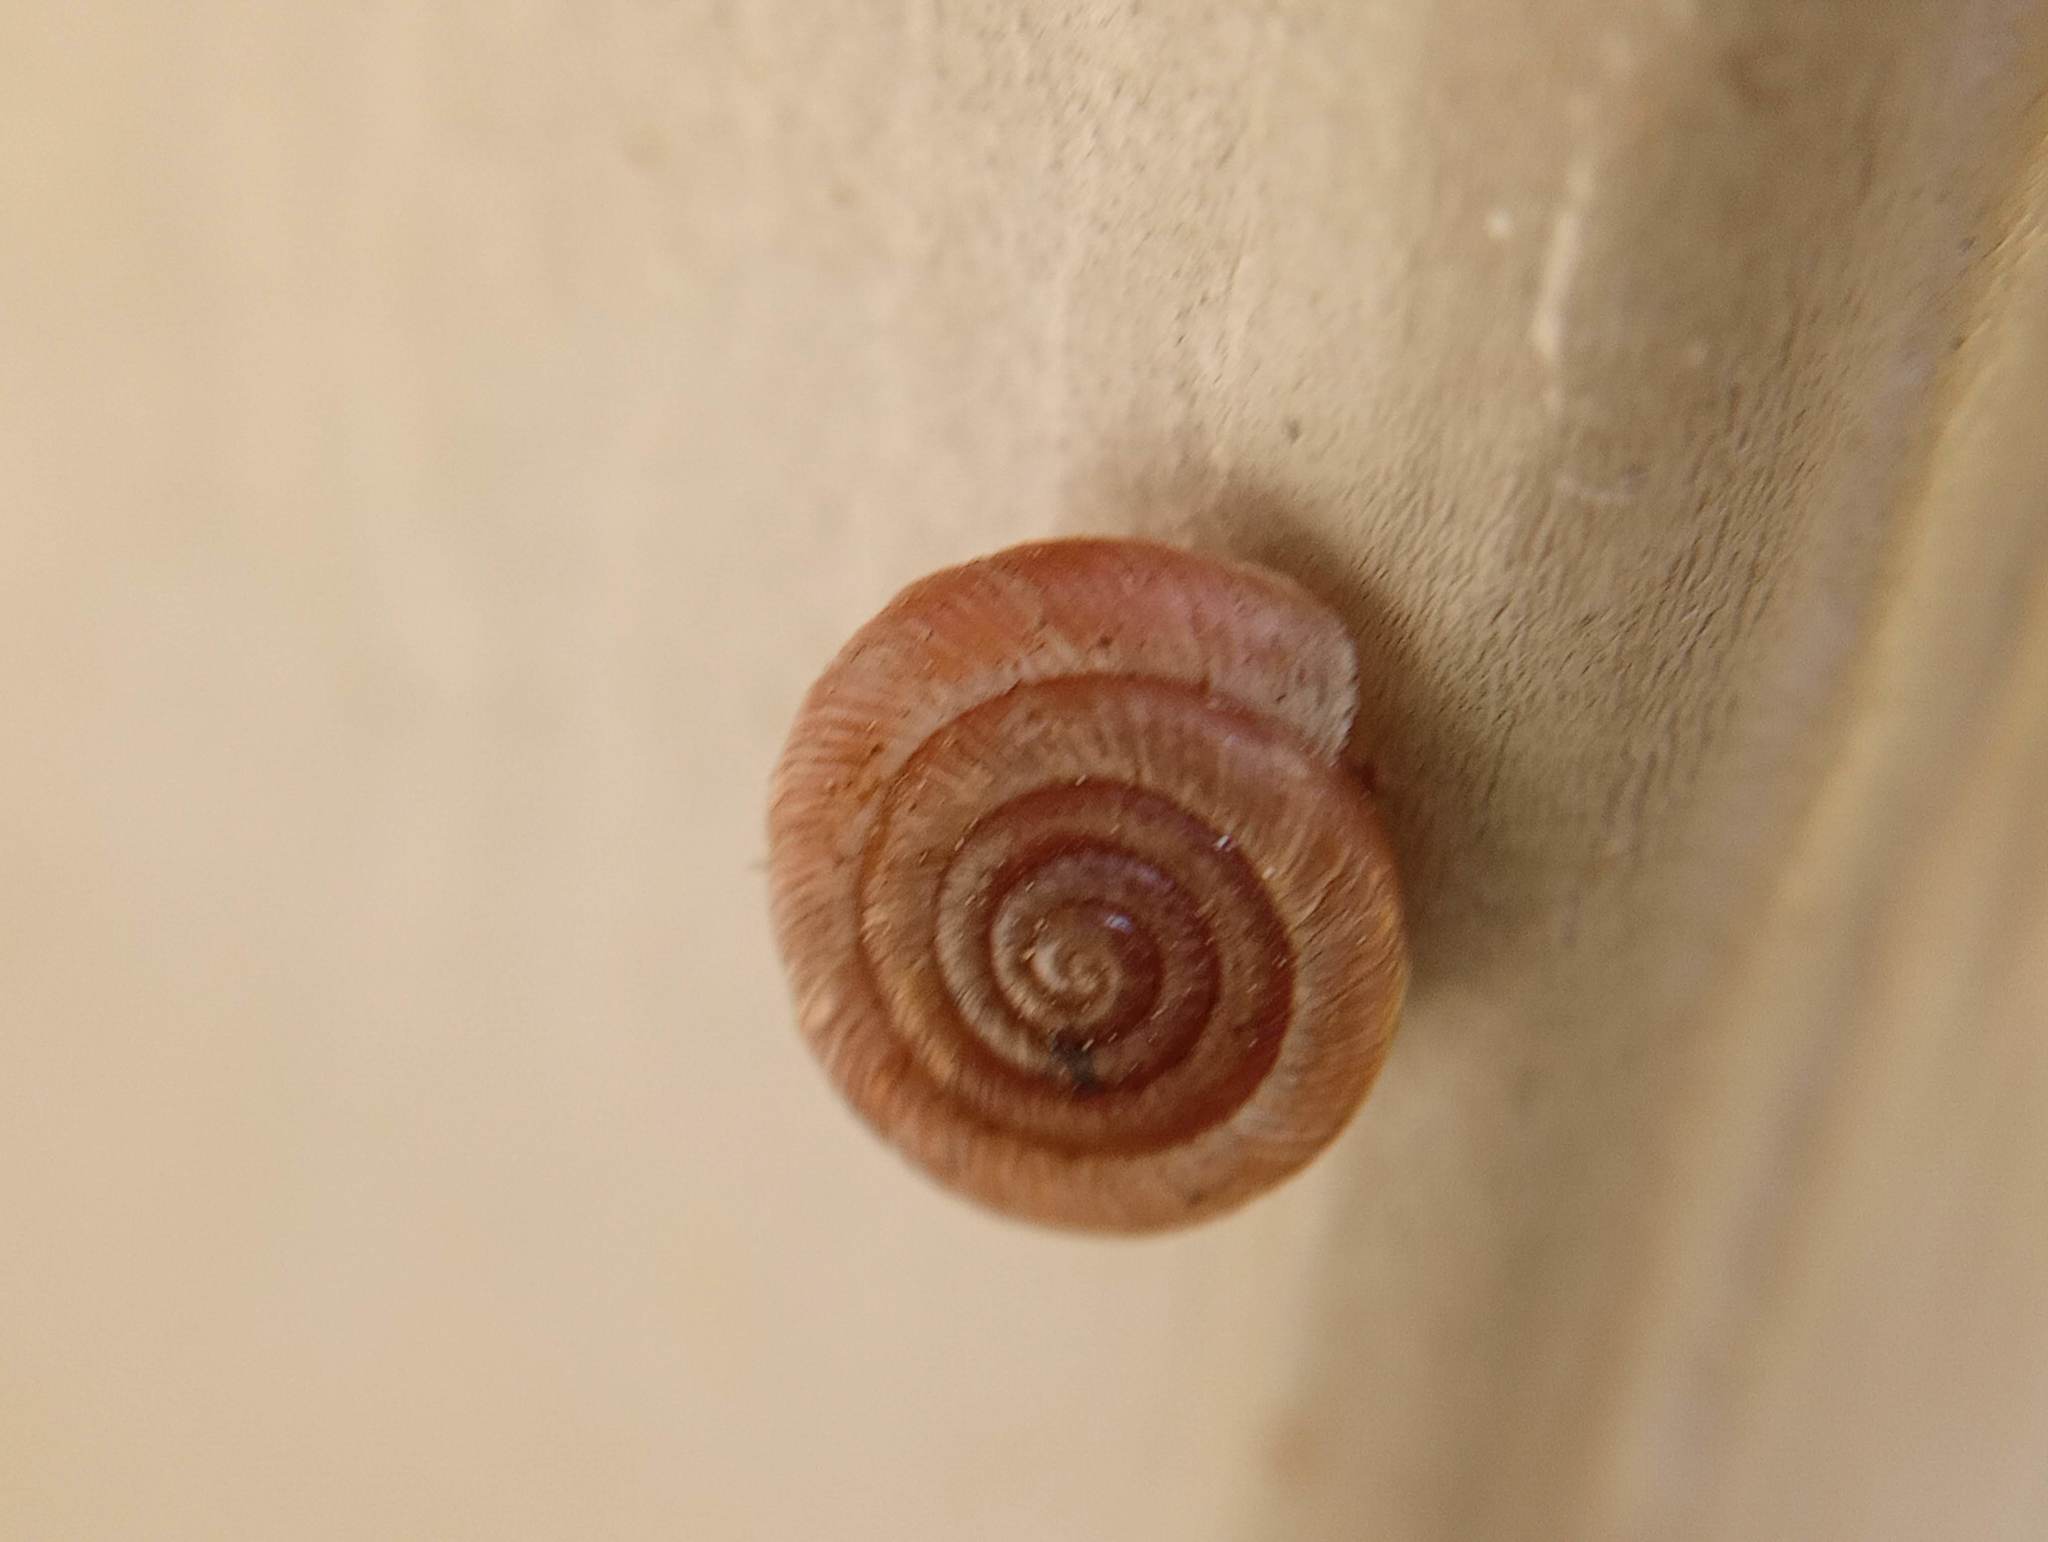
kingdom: Animalia
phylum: Mollusca
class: Gastropoda
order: Stylommatophora
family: Polygyridae
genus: Polygyra
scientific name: Polygyra cereolus
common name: Southern flatcone snail
